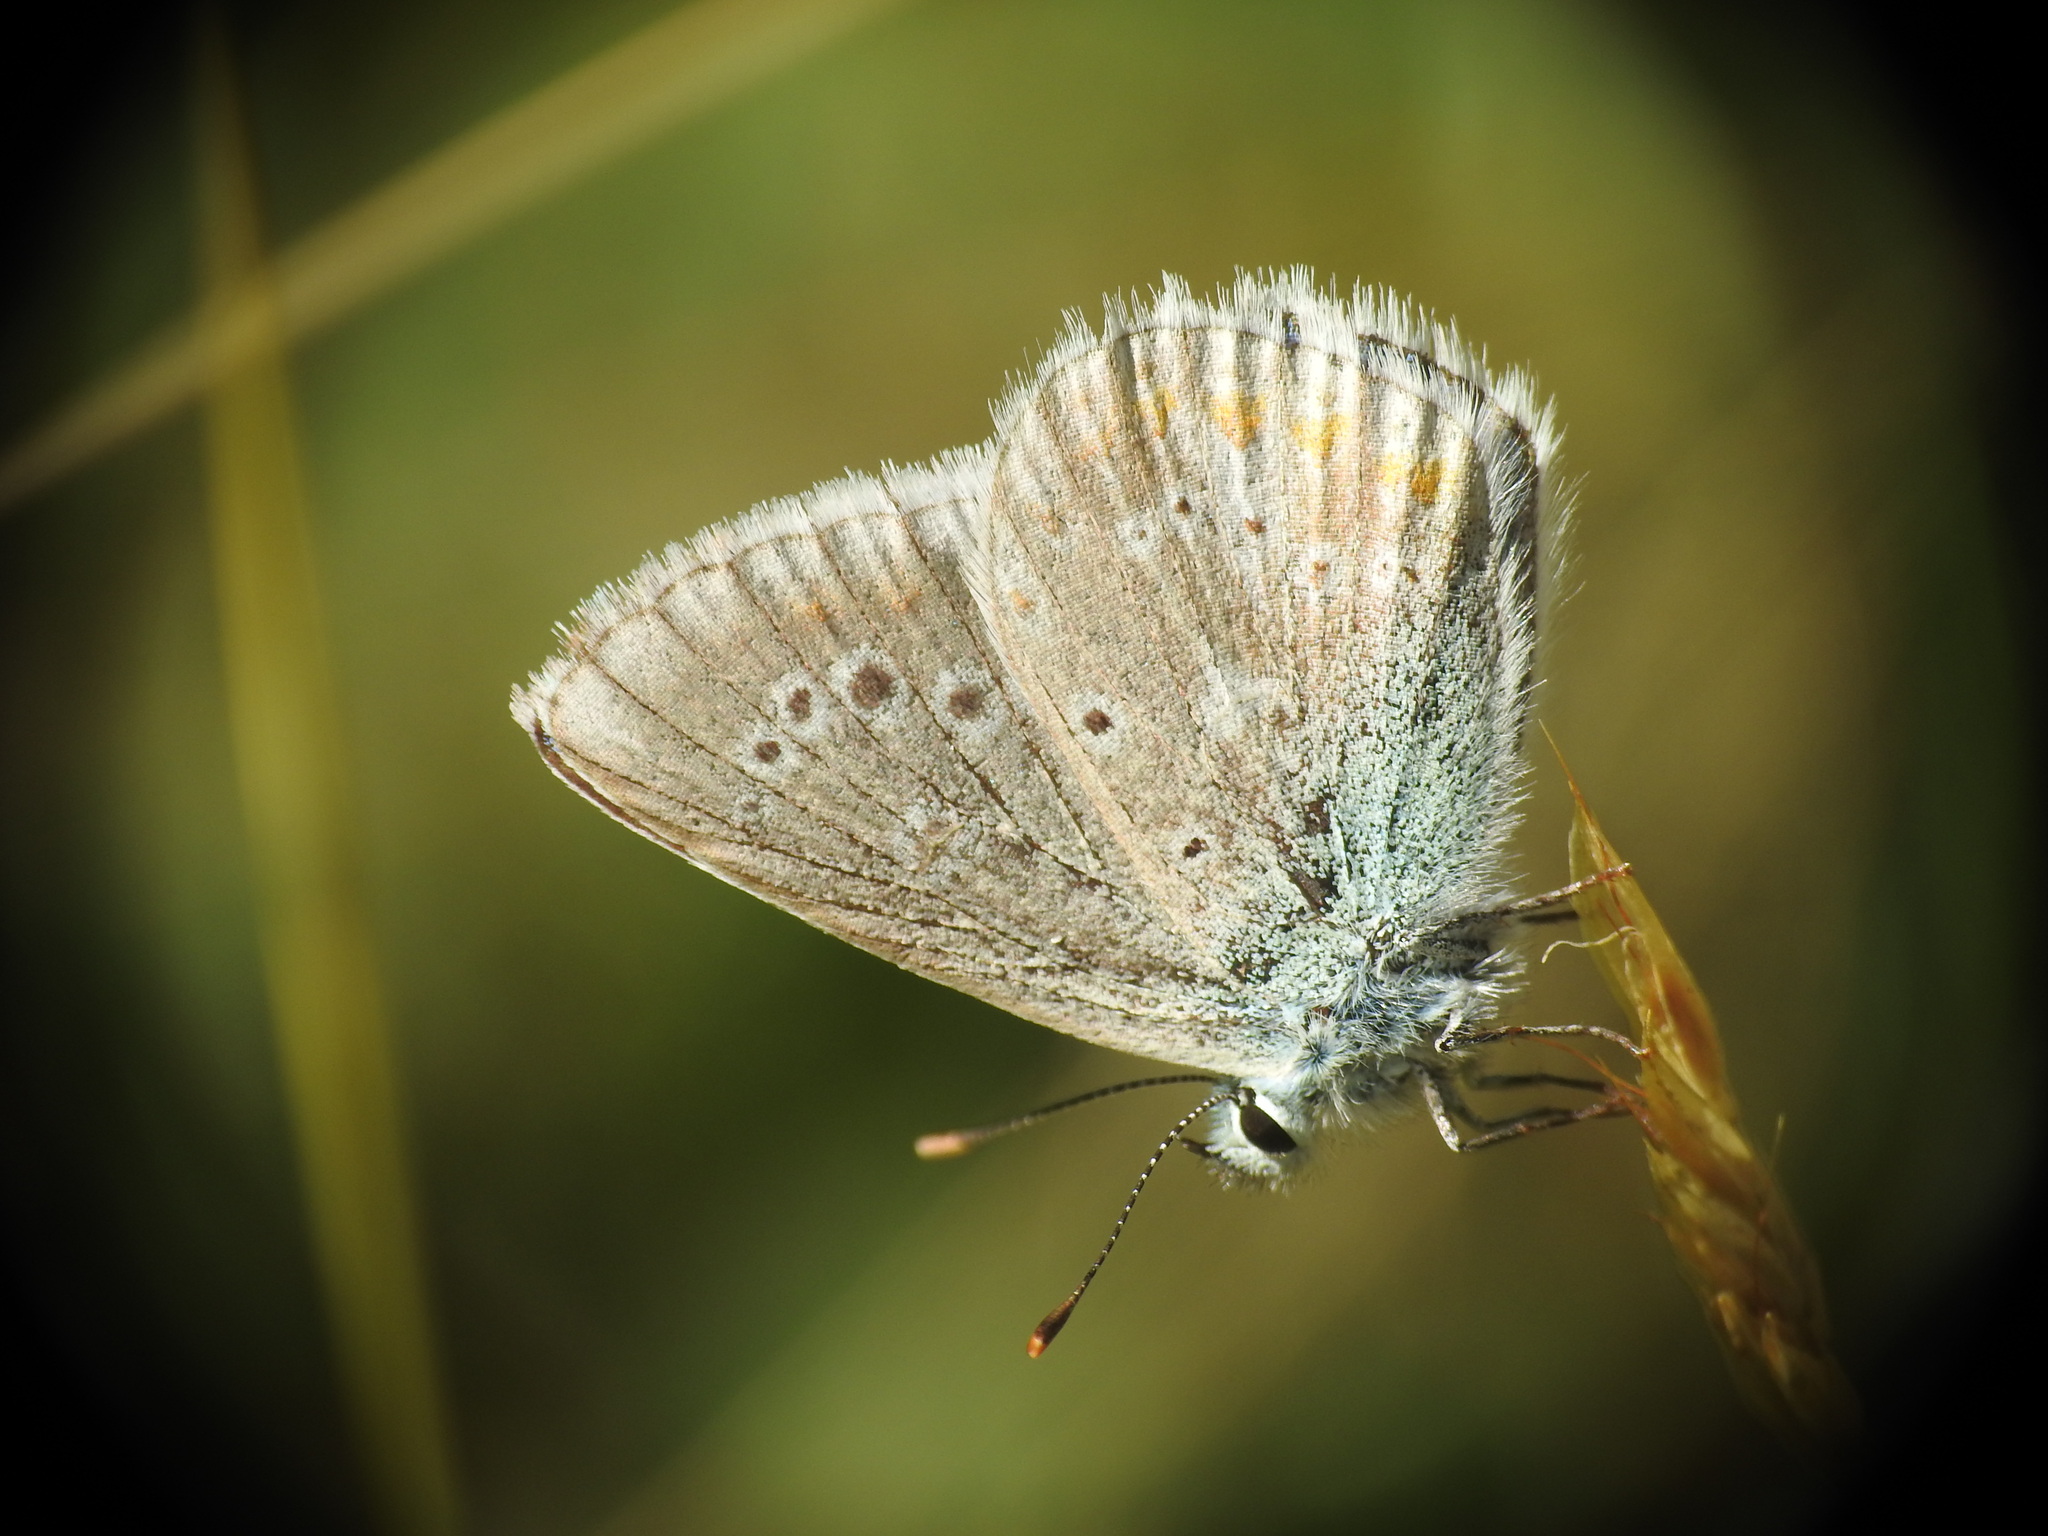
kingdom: Animalia
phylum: Arthropoda
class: Insecta
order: Lepidoptera
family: Lycaenidae
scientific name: Lycaenidae
